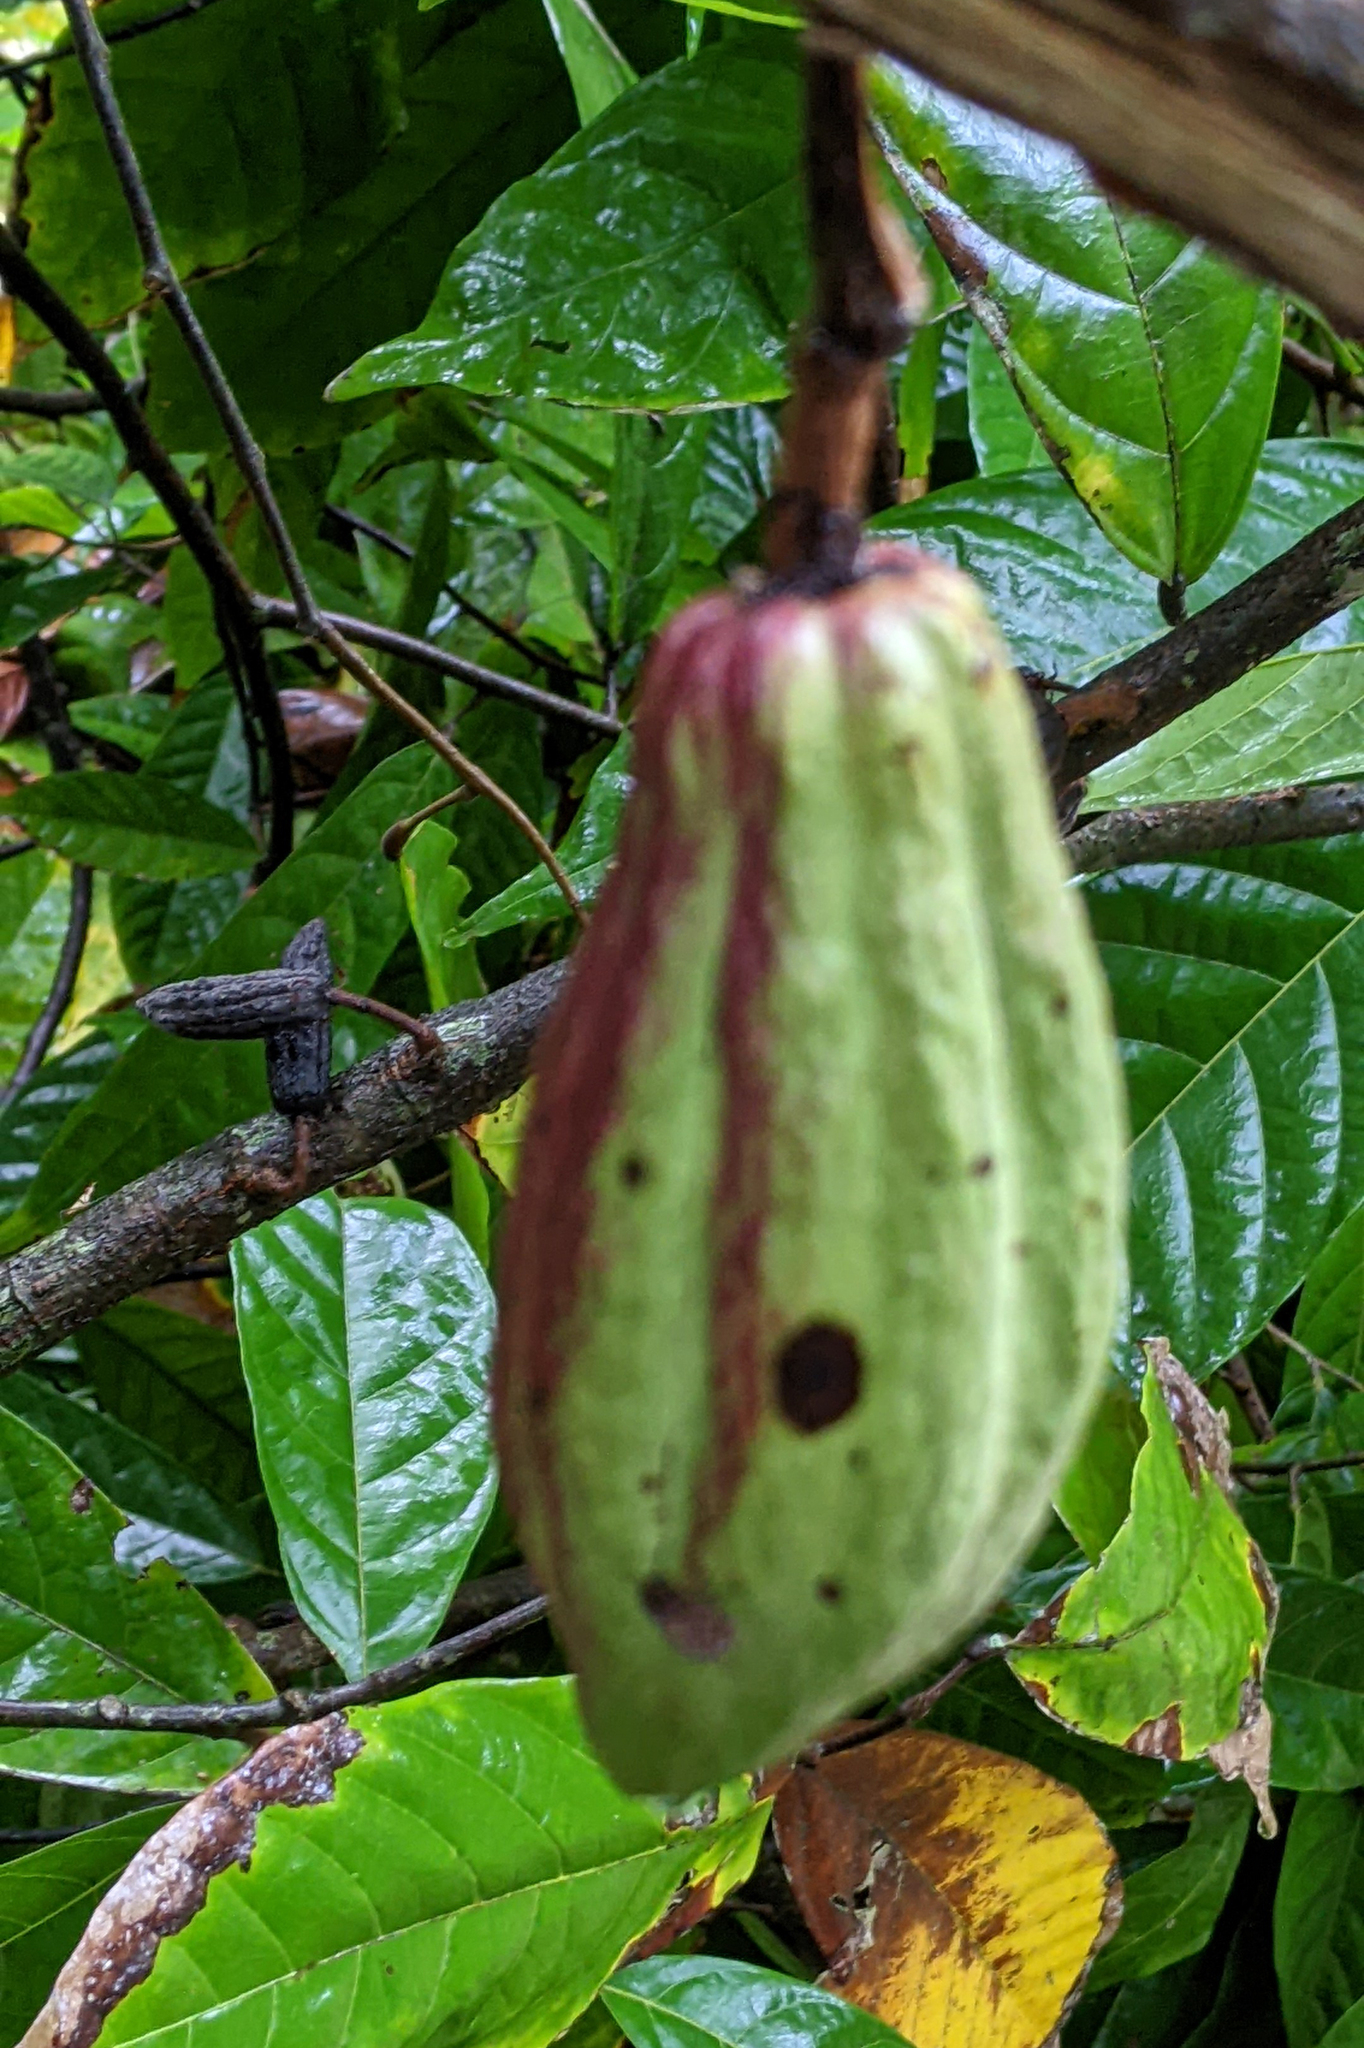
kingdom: Plantae
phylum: Tracheophyta
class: Magnoliopsida
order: Malvales
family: Malvaceae
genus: Theobroma
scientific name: Theobroma cacao
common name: Cocoa
